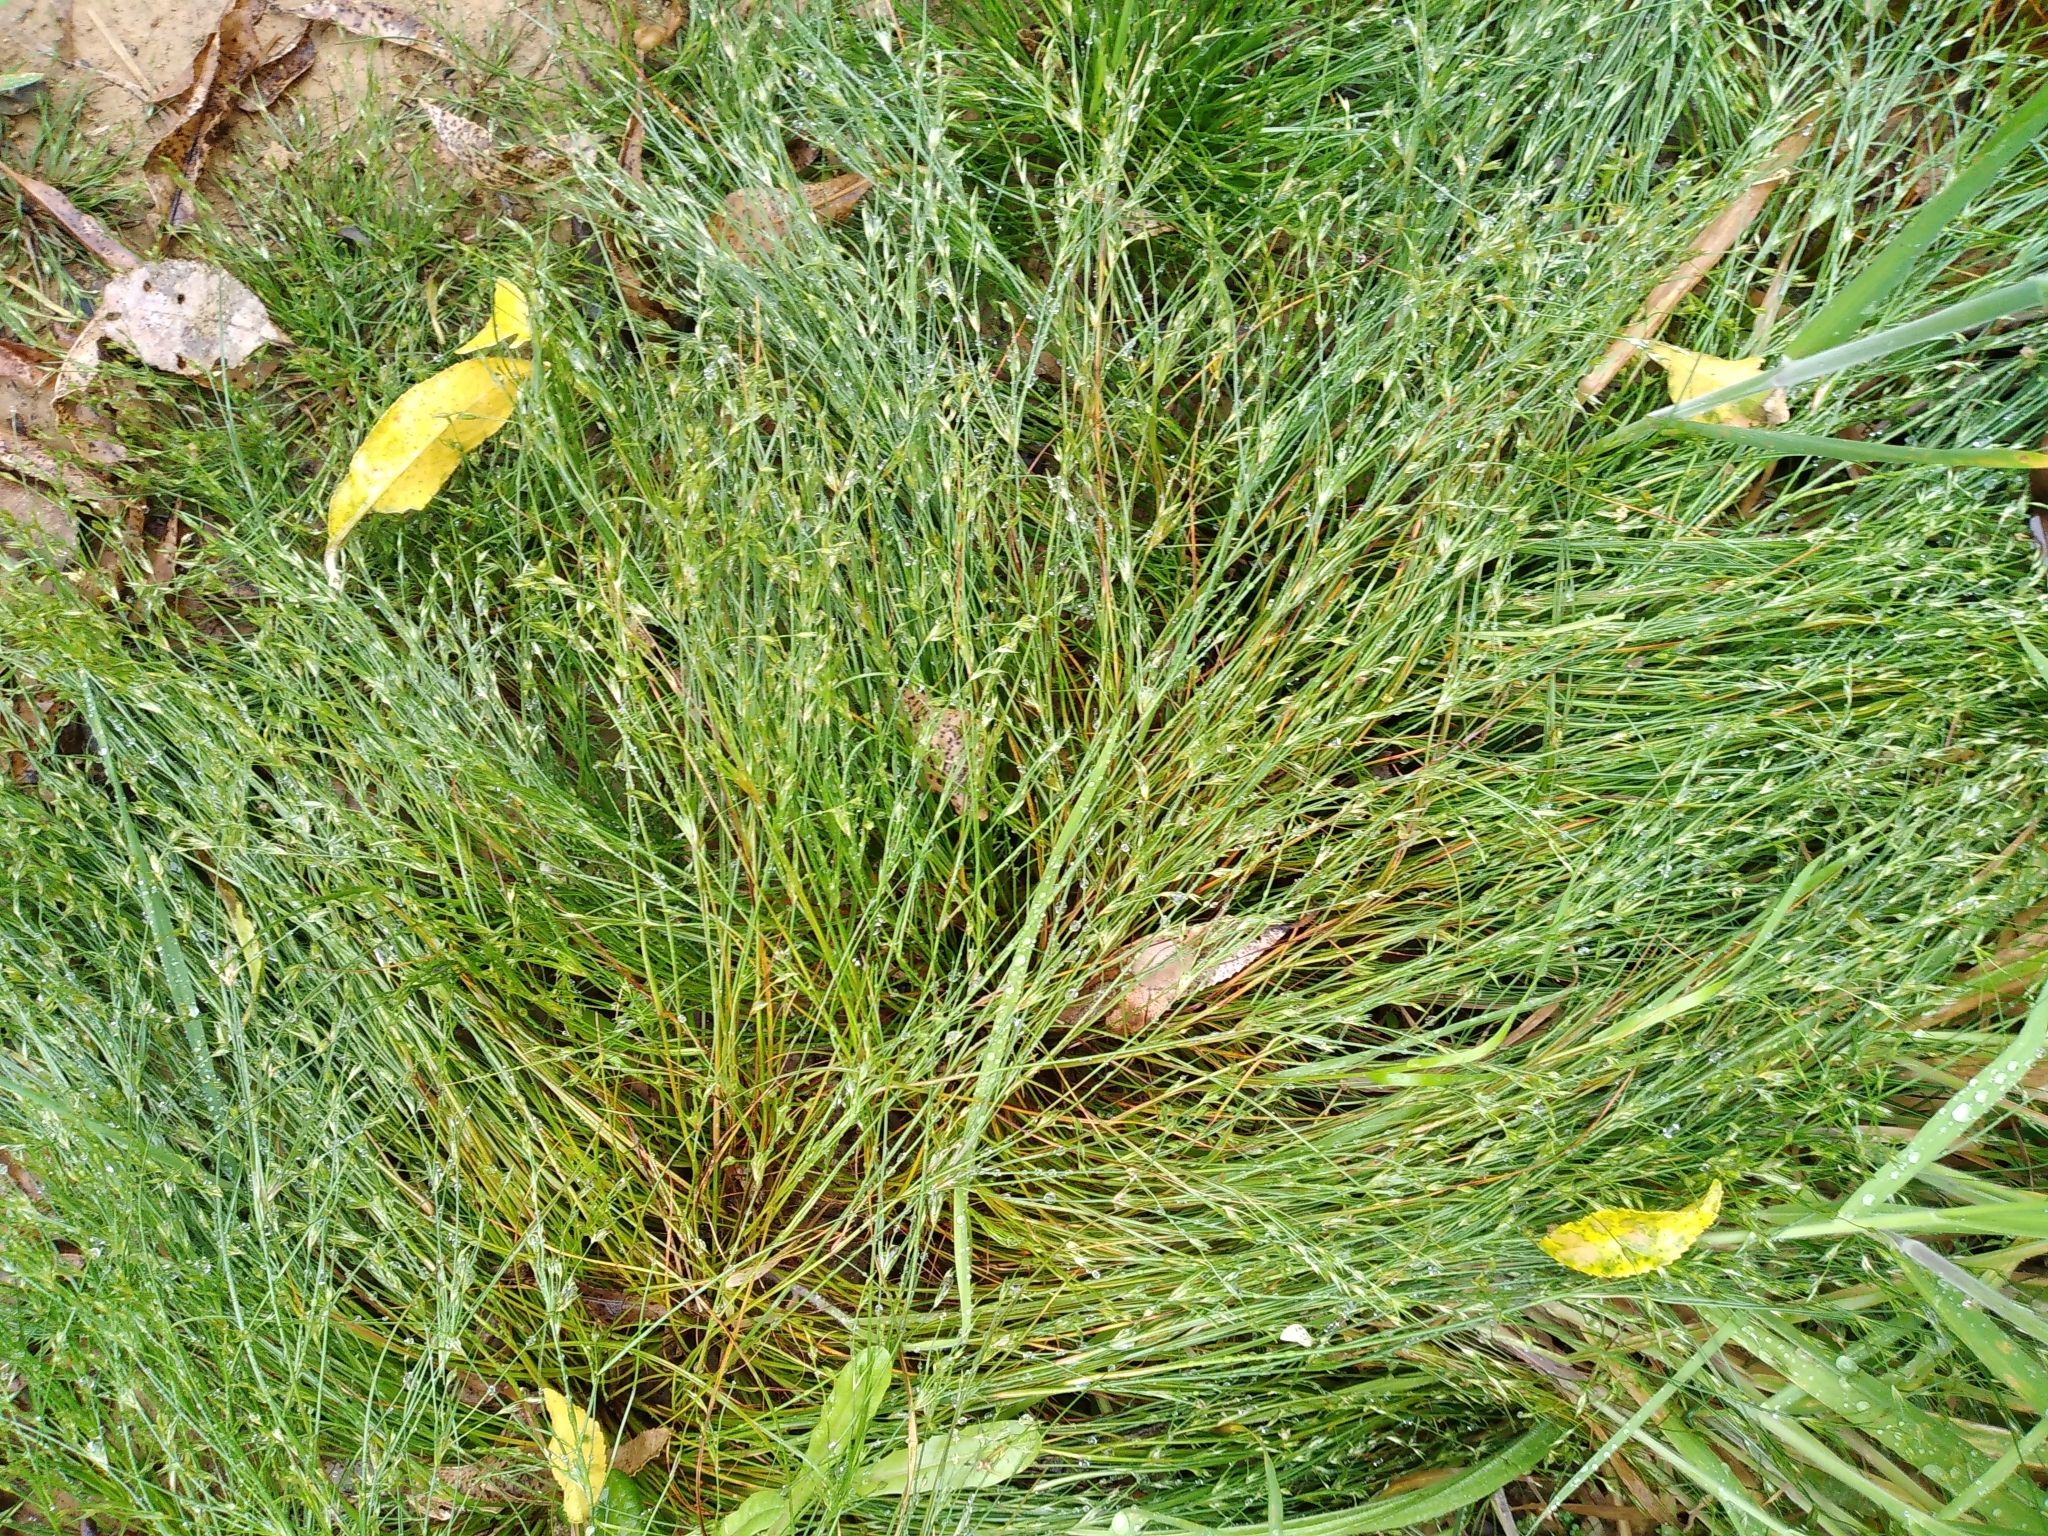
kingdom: Plantae
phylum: Tracheophyta
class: Liliopsida
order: Poales
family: Juncaceae
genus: Juncus
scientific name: Juncus bufonius
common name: Toad rush
